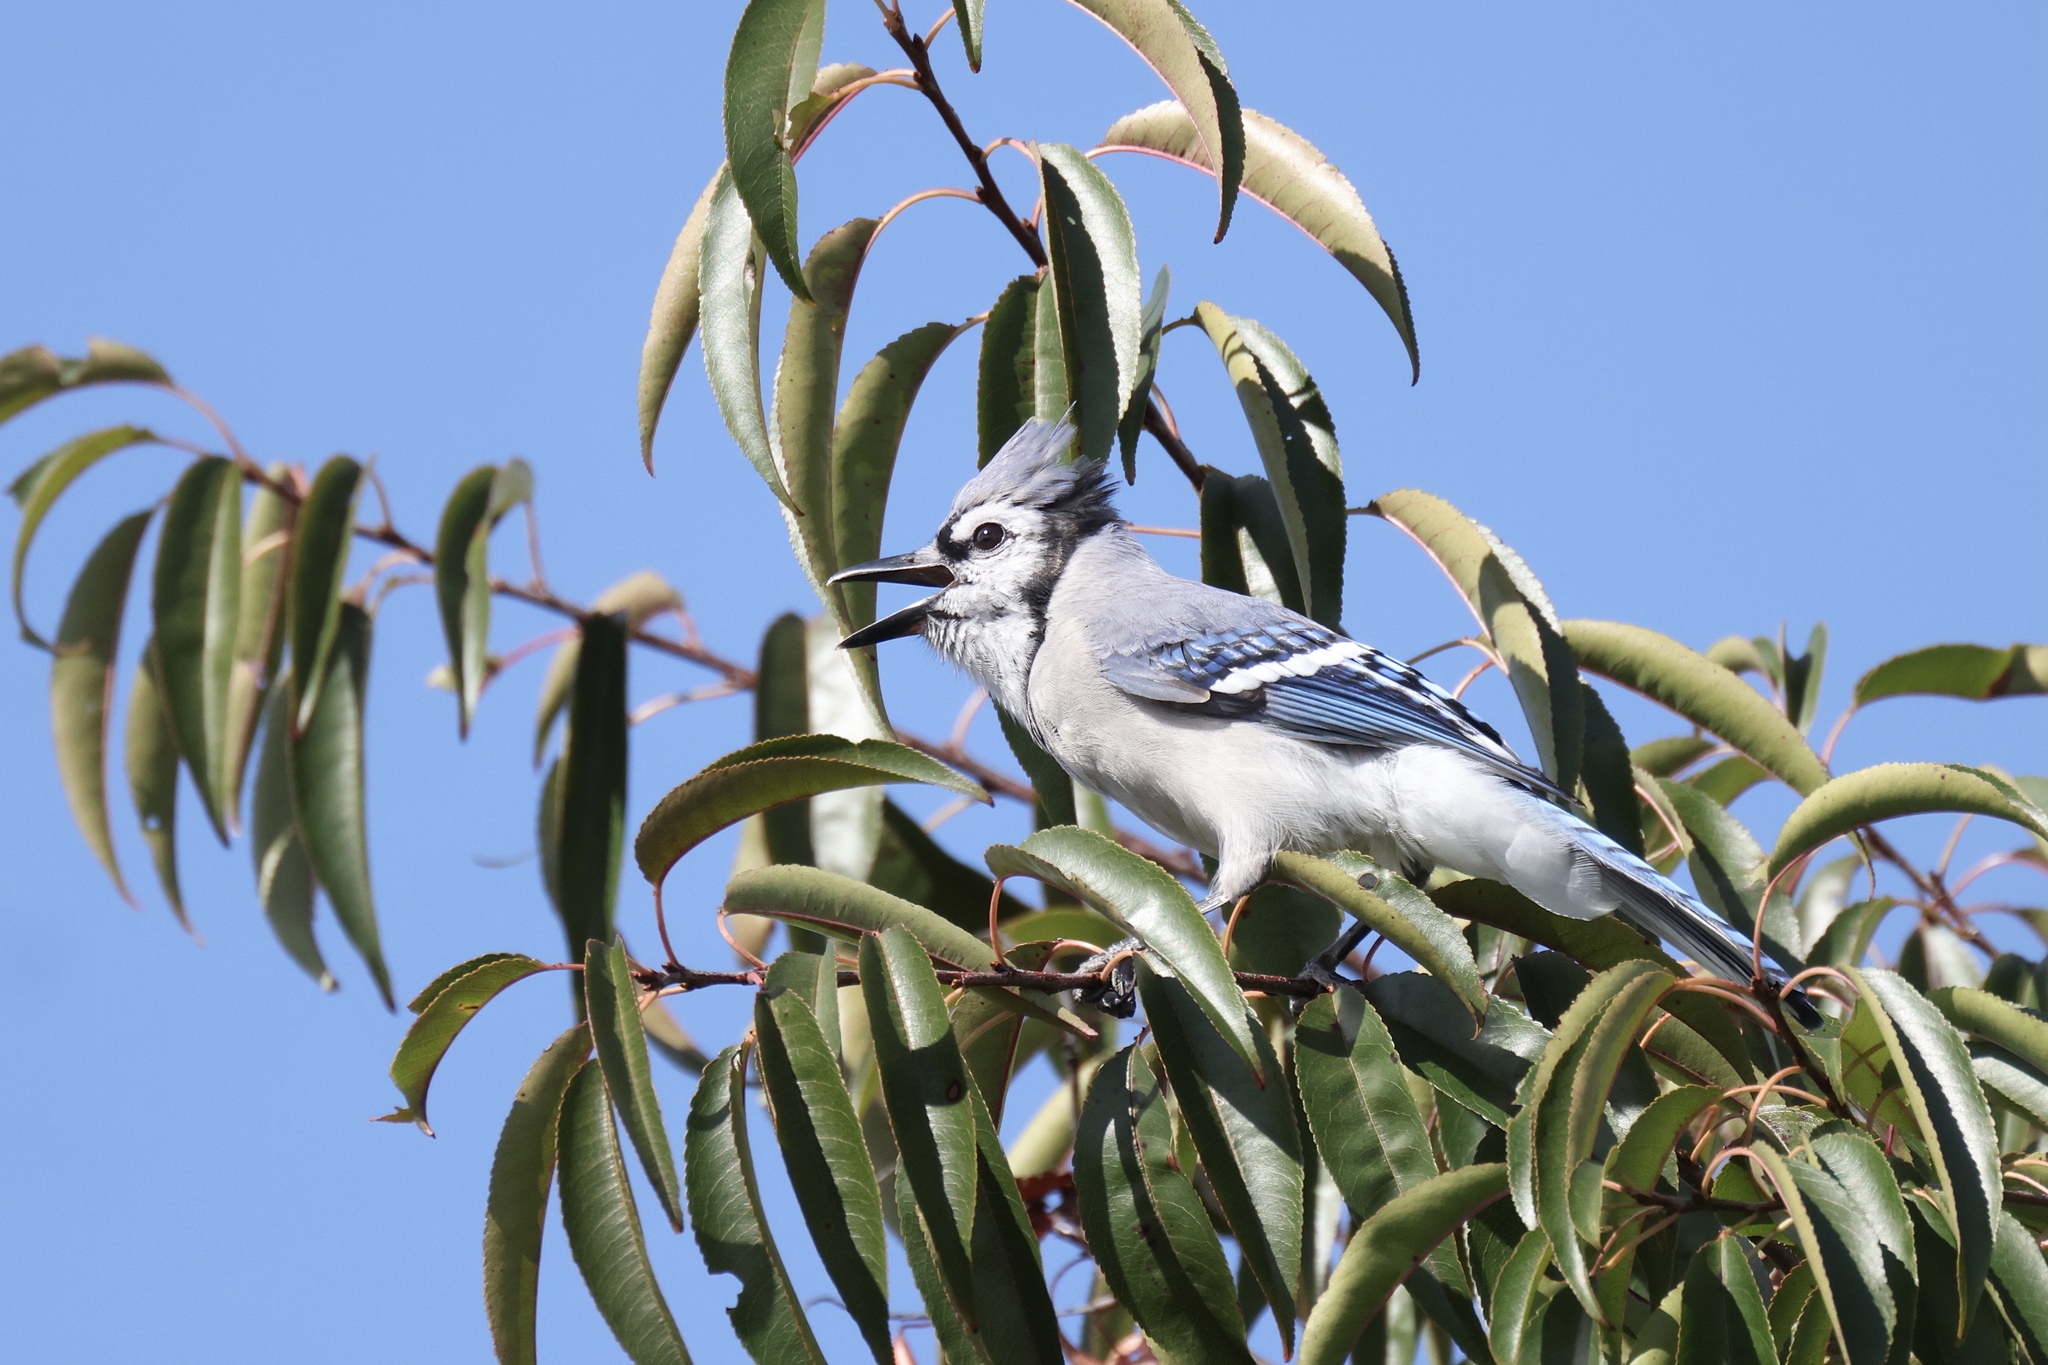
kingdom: Animalia
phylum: Chordata
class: Aves
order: Passeriformes
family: Corvidae
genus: Cyanocitta
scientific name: Cyanocitta cristata
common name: Blue jay
